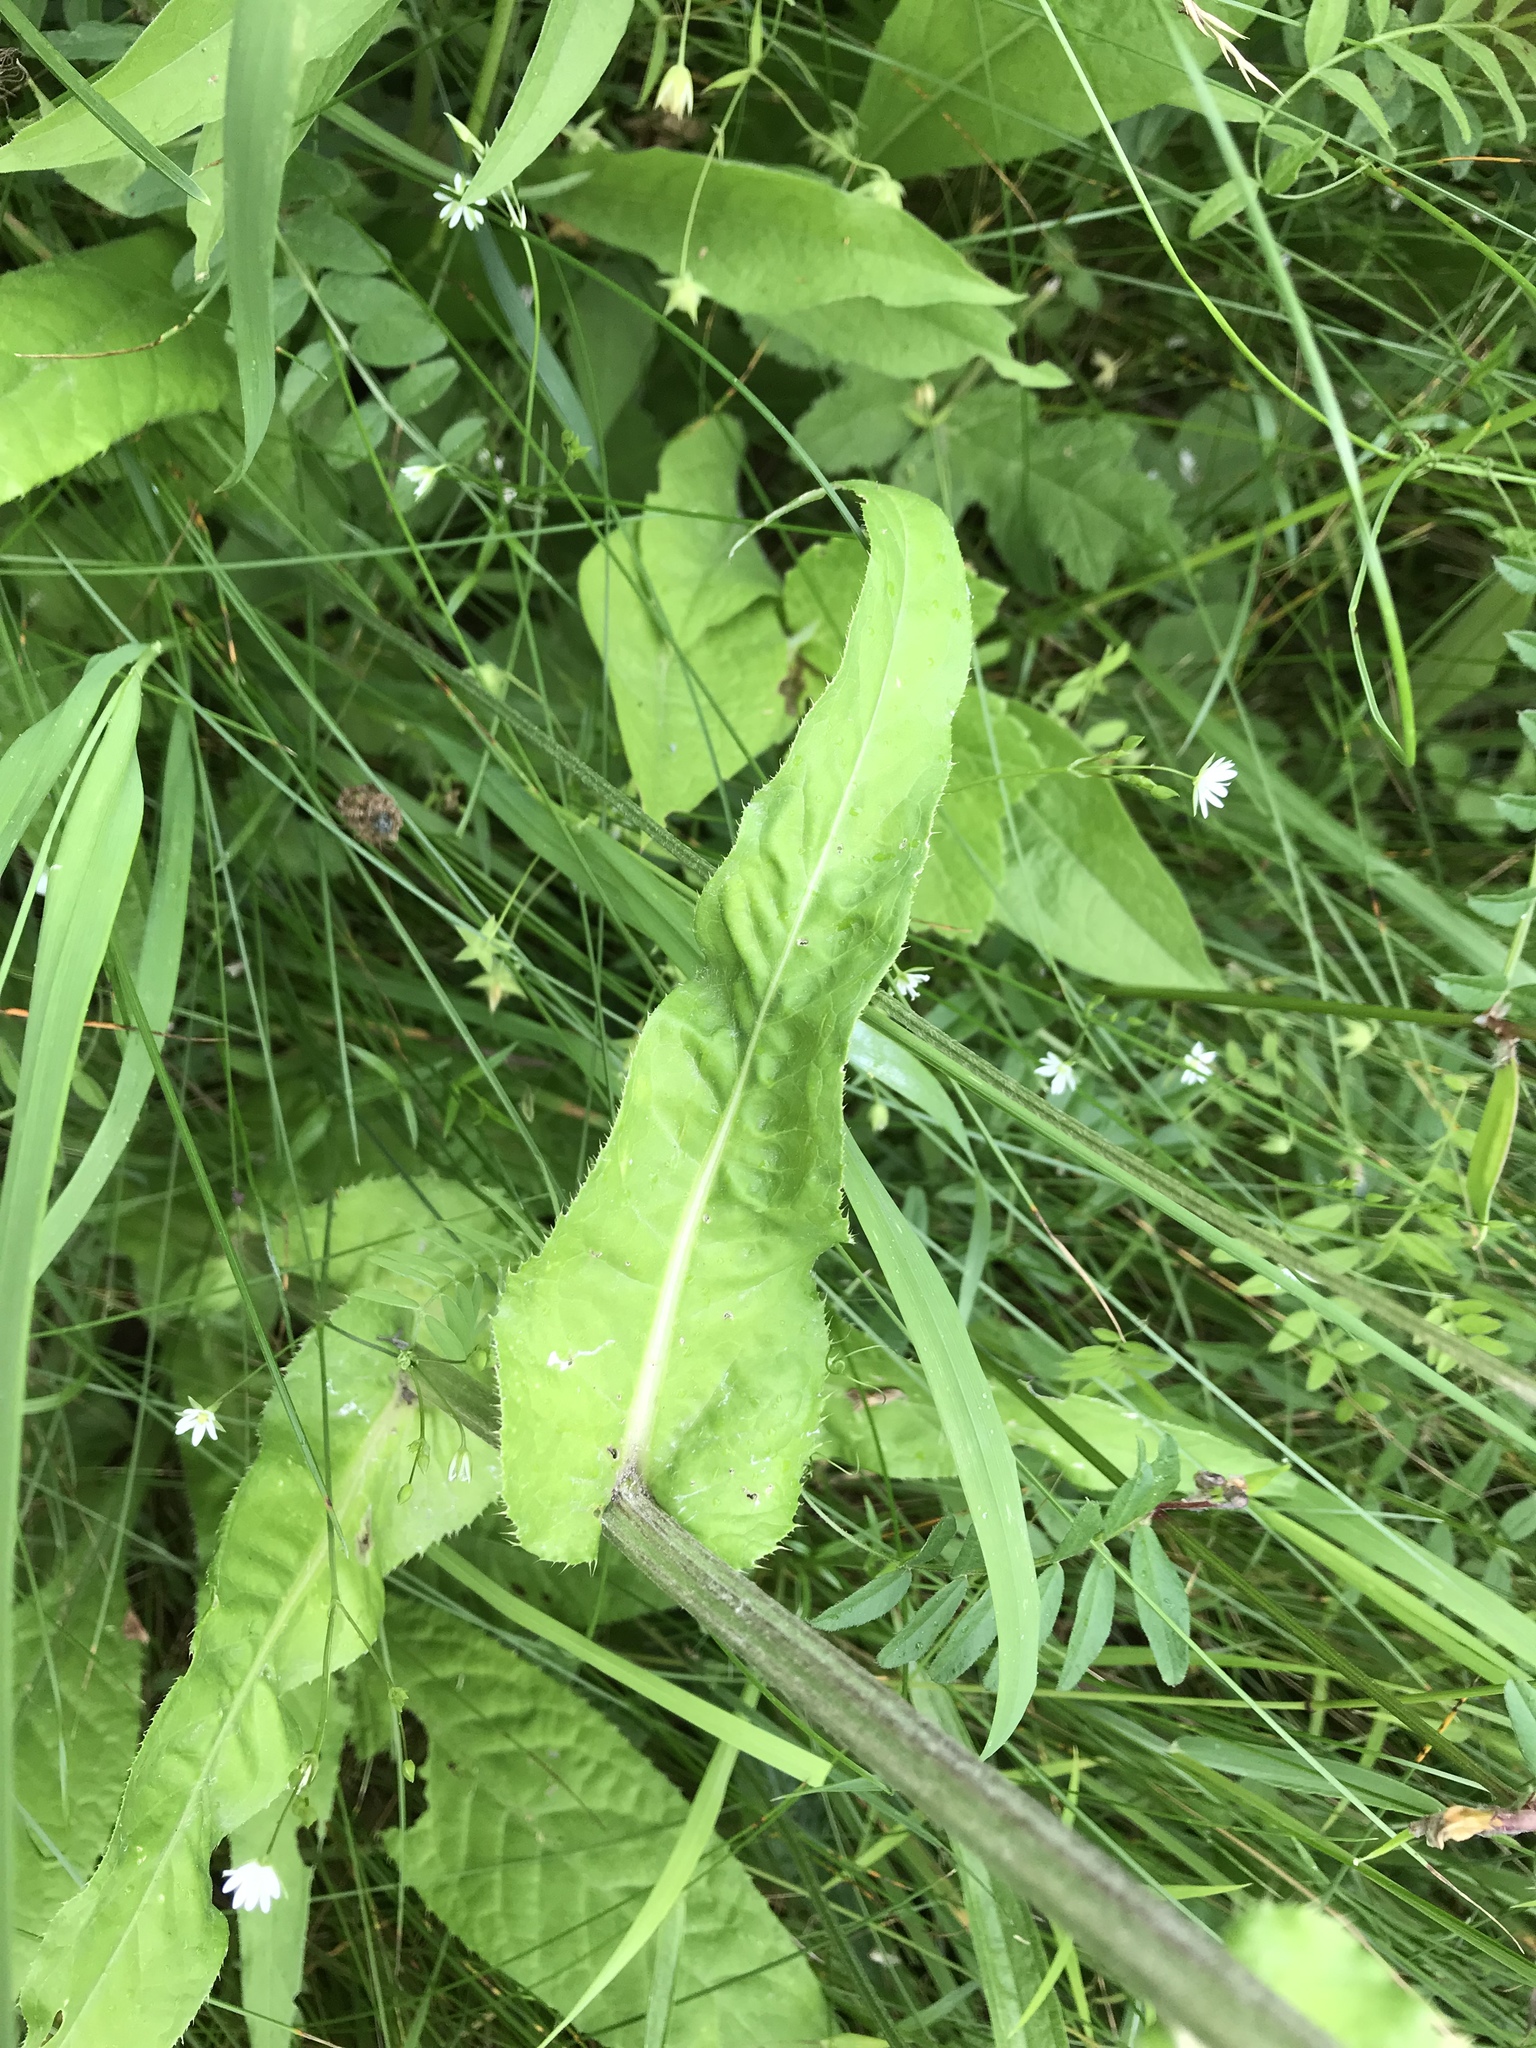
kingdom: Plantae
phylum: Tracheophyta
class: Magnoliopsida
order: Asterales
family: Asteraceae
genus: Cirsium
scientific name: Cirsium heterophyllum
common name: Melancholy thistle
